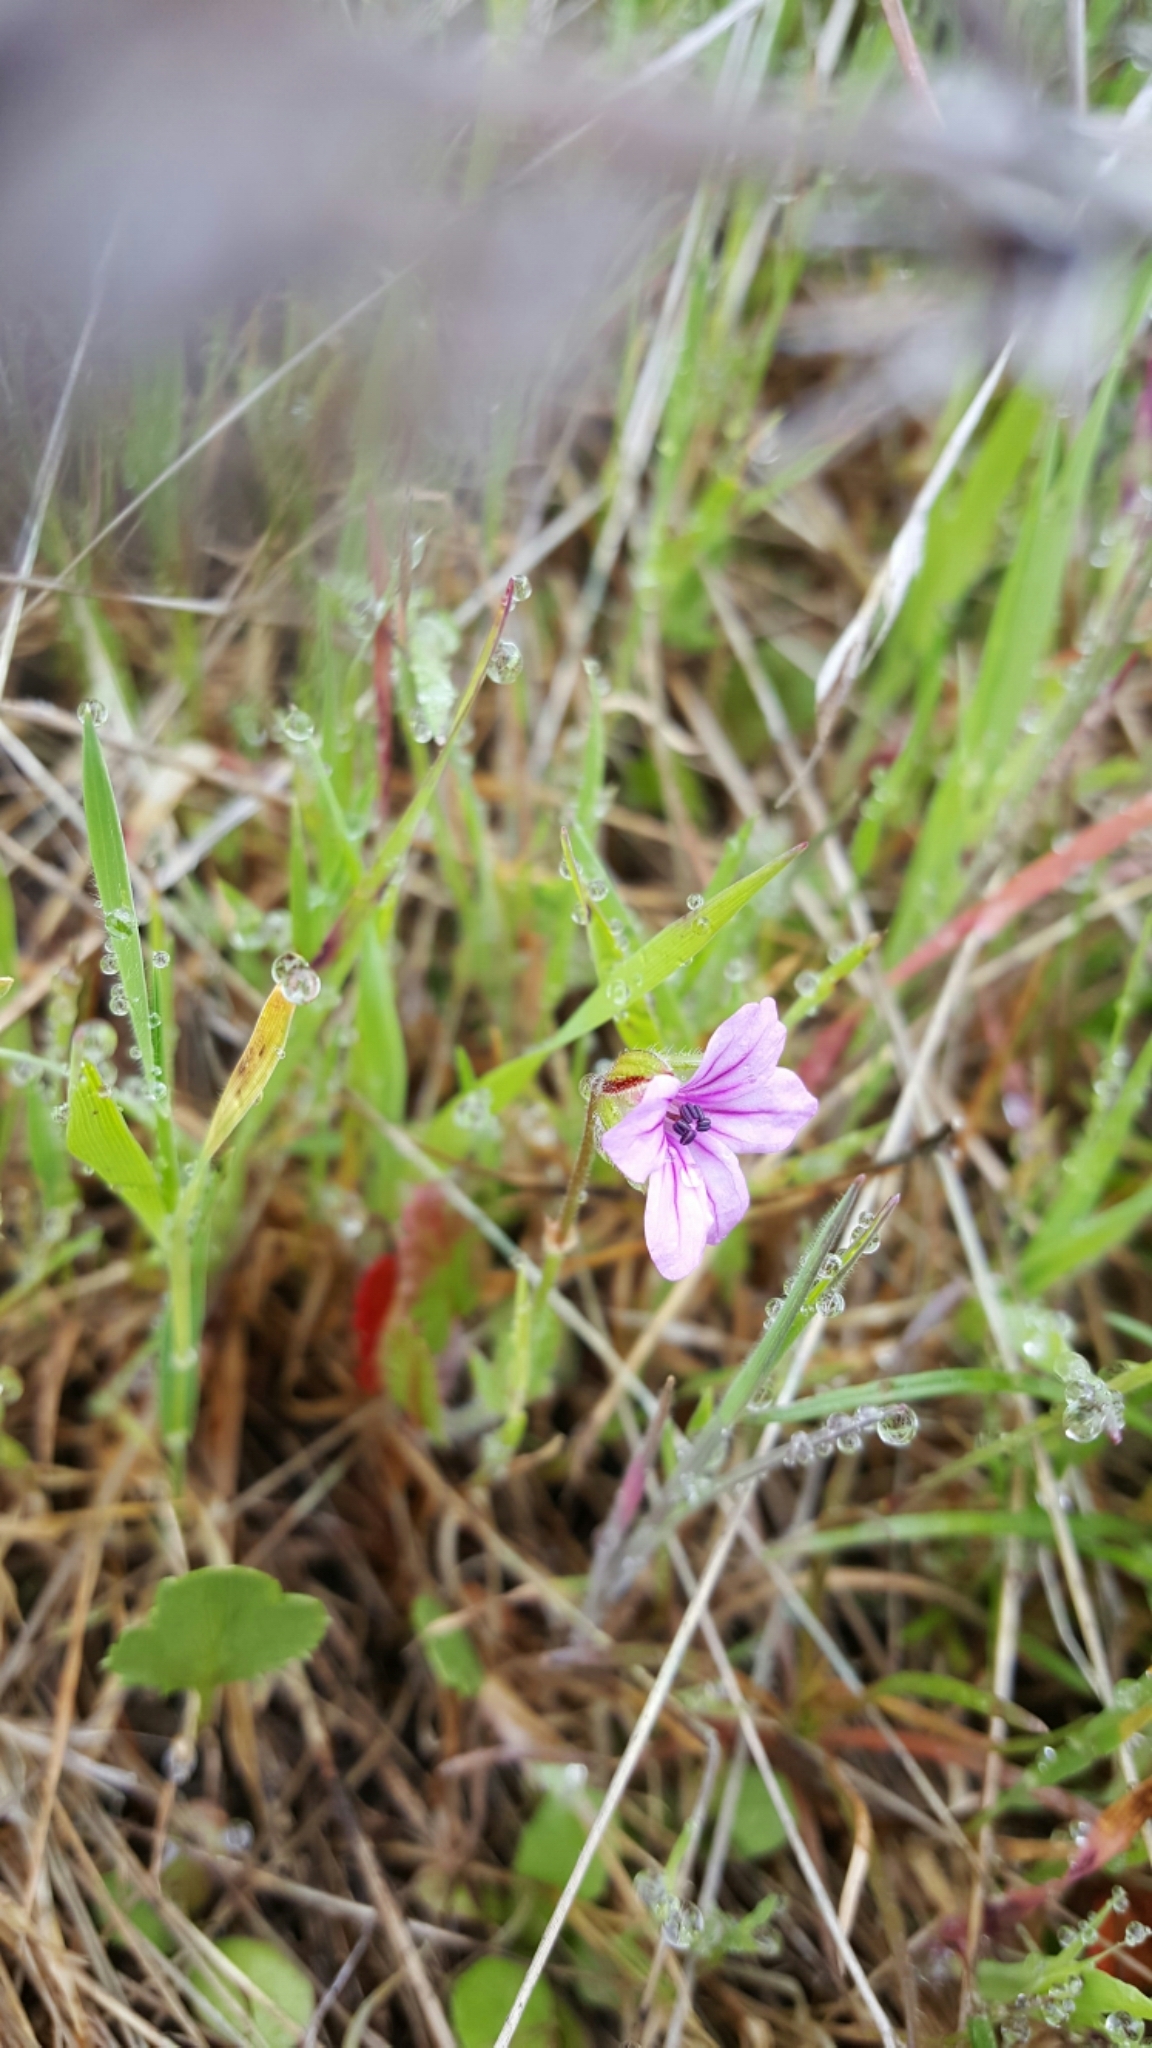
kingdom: Plantae
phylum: Tracheophyta
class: Magnoliopsida
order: Geraniales
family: Geraniaceae
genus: Erodium
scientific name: Erodium botrys
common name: Mediterranean stork's-bill
